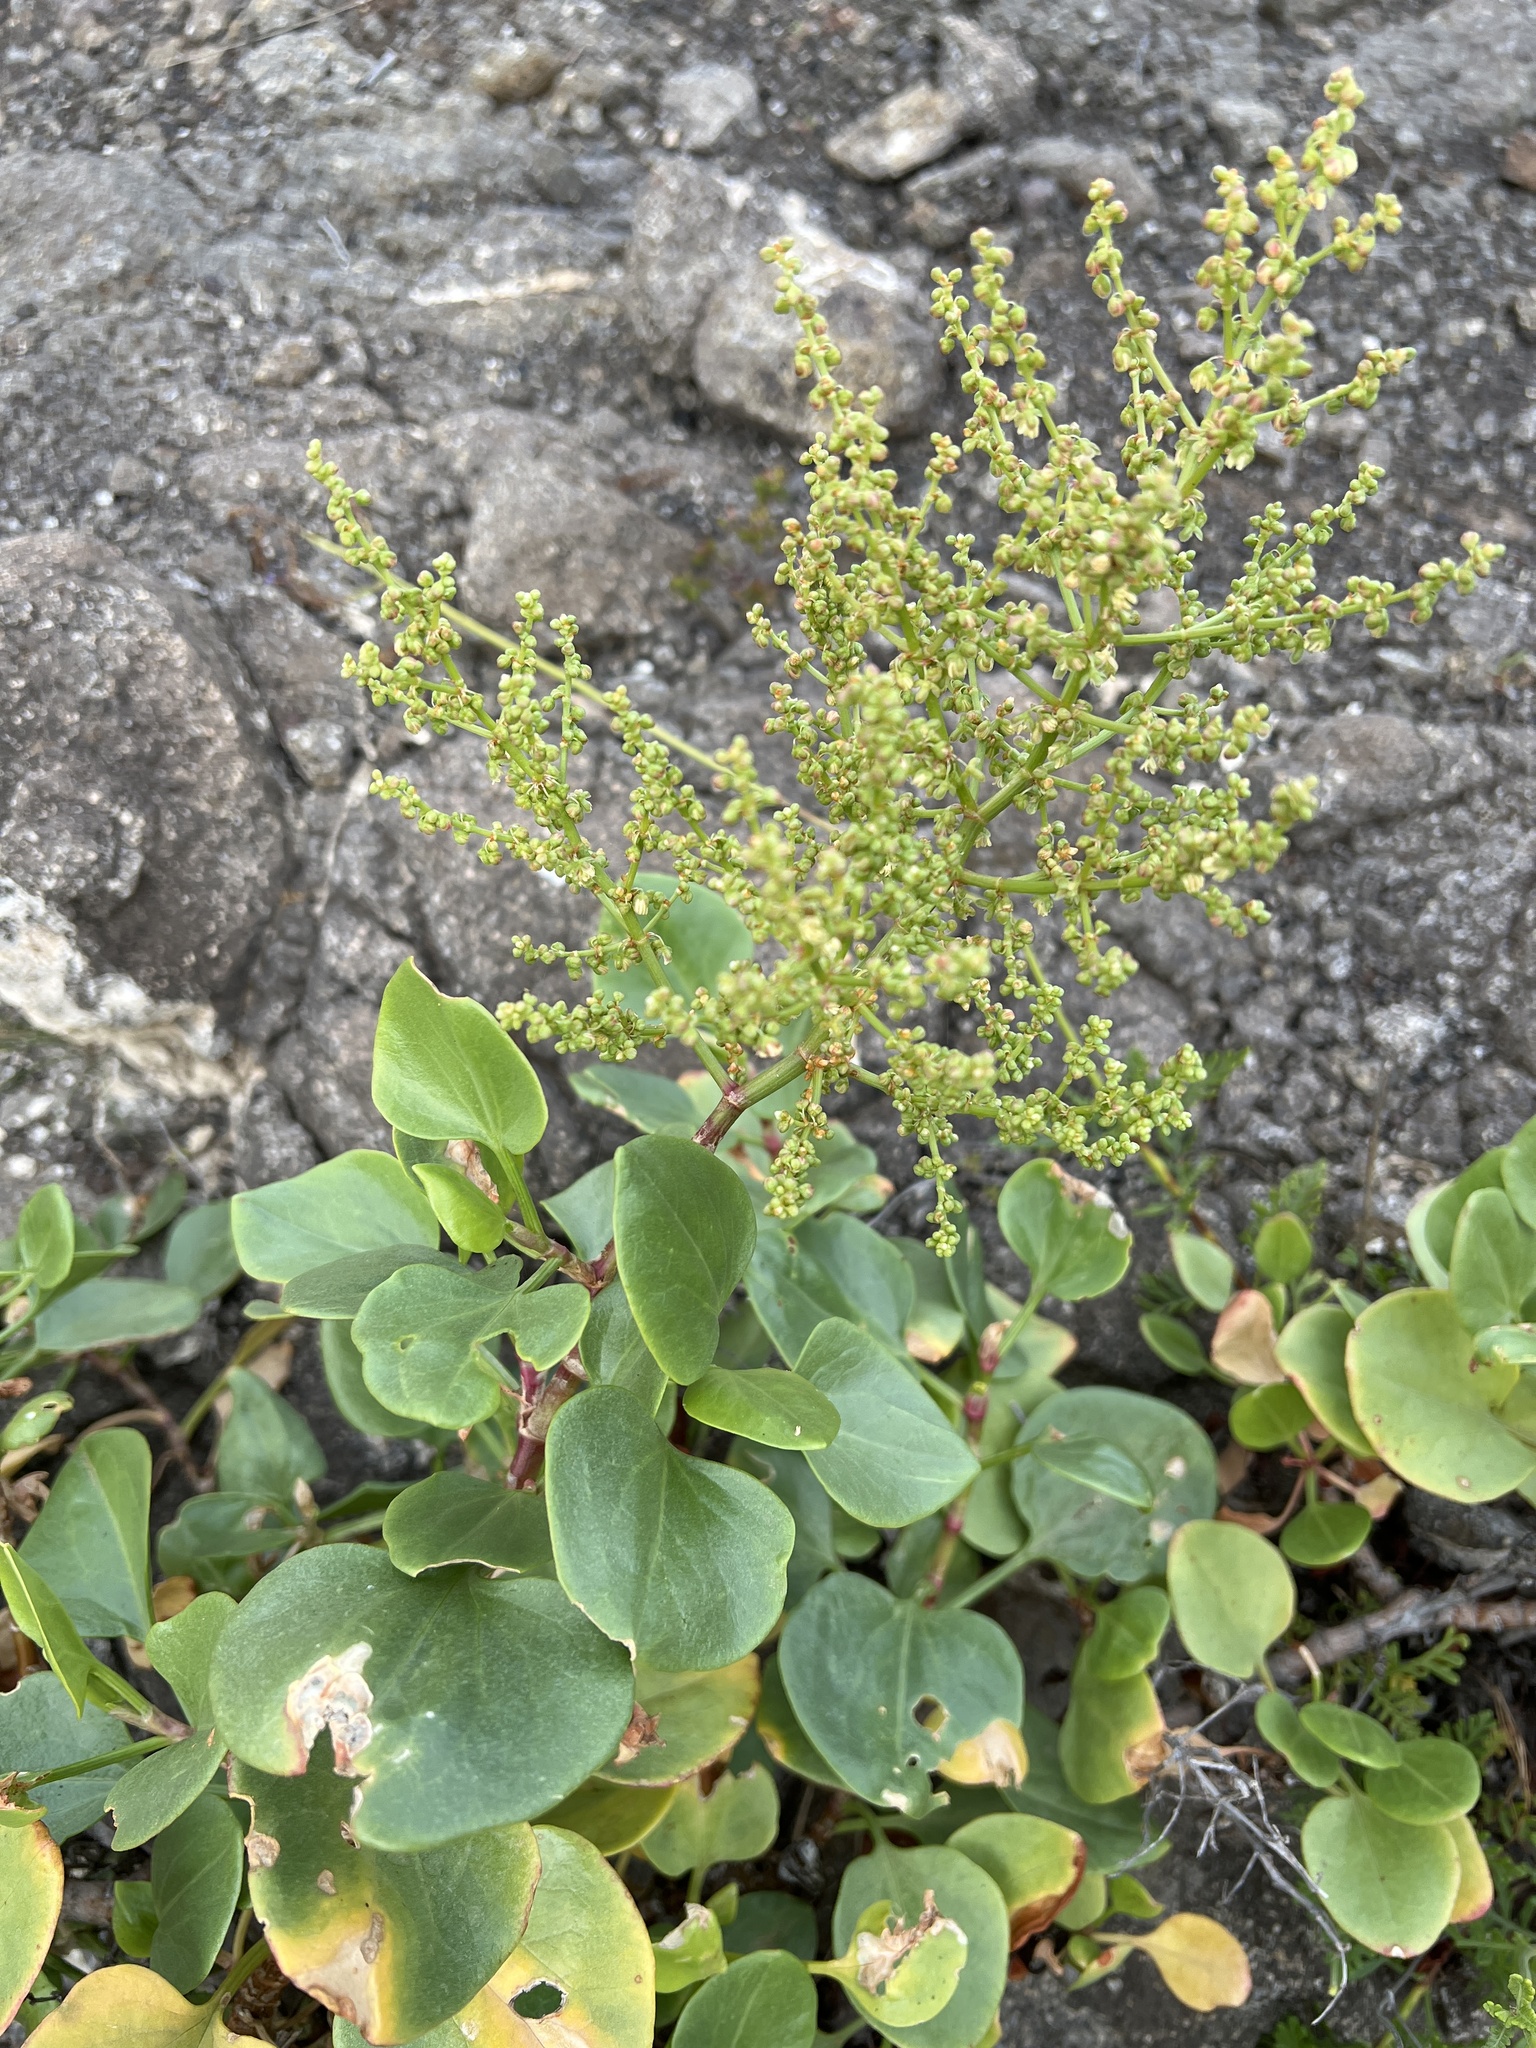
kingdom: Plantae
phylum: Tracheophyta
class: Magnoliopsida
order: Caryophyllales
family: Polygonaceae
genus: Rumex
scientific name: Rumex lunaria
